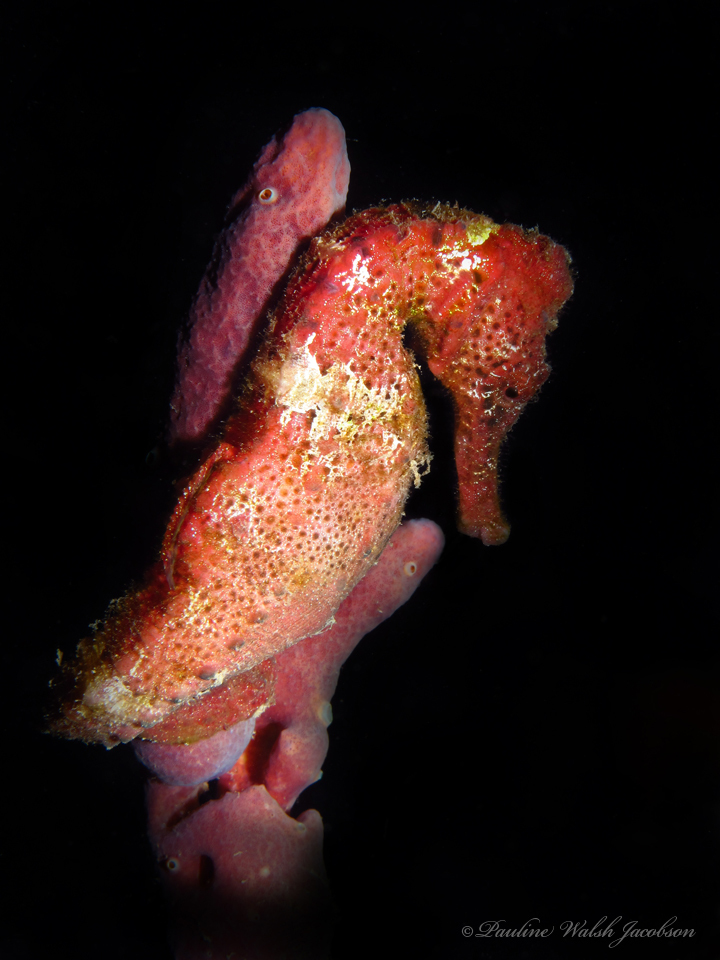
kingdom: Animalia
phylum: Chordata
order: Syngnathiformes
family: Syngnathidae
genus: Hippocampus
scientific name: Hippocampus reidi
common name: Slender seahorse
